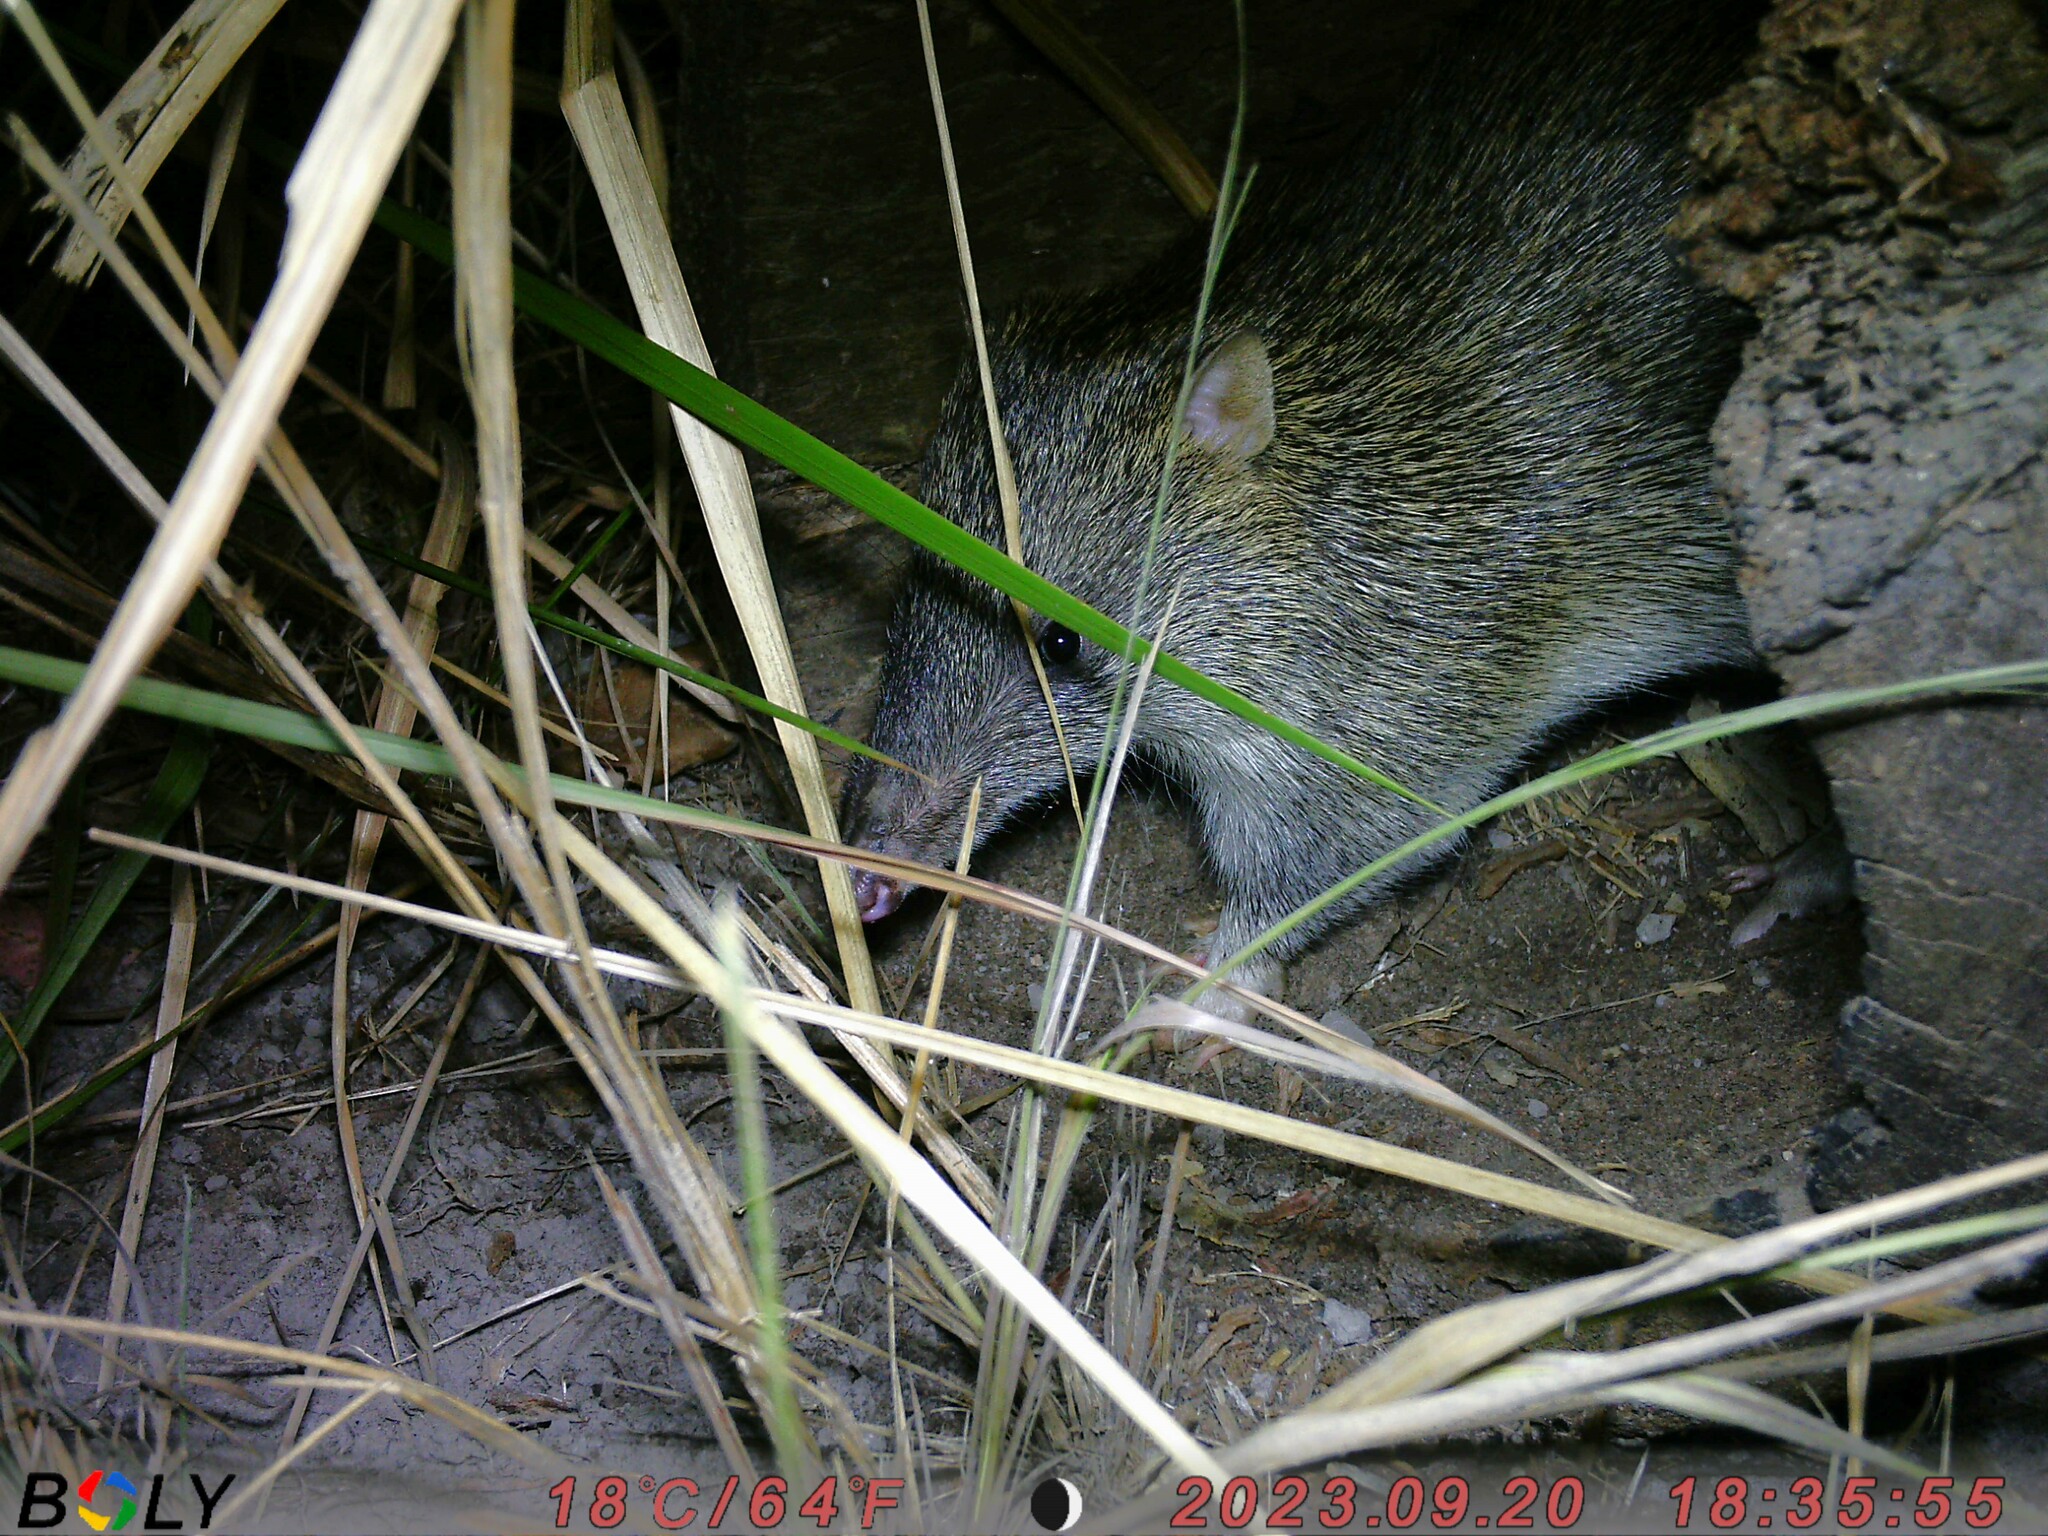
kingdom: Animalia
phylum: Chordata
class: Mammalia
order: Peramelemorphia
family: Peramelidae
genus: Isoodon
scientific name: Isoodon macrourus
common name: Northern brown bandicoot
